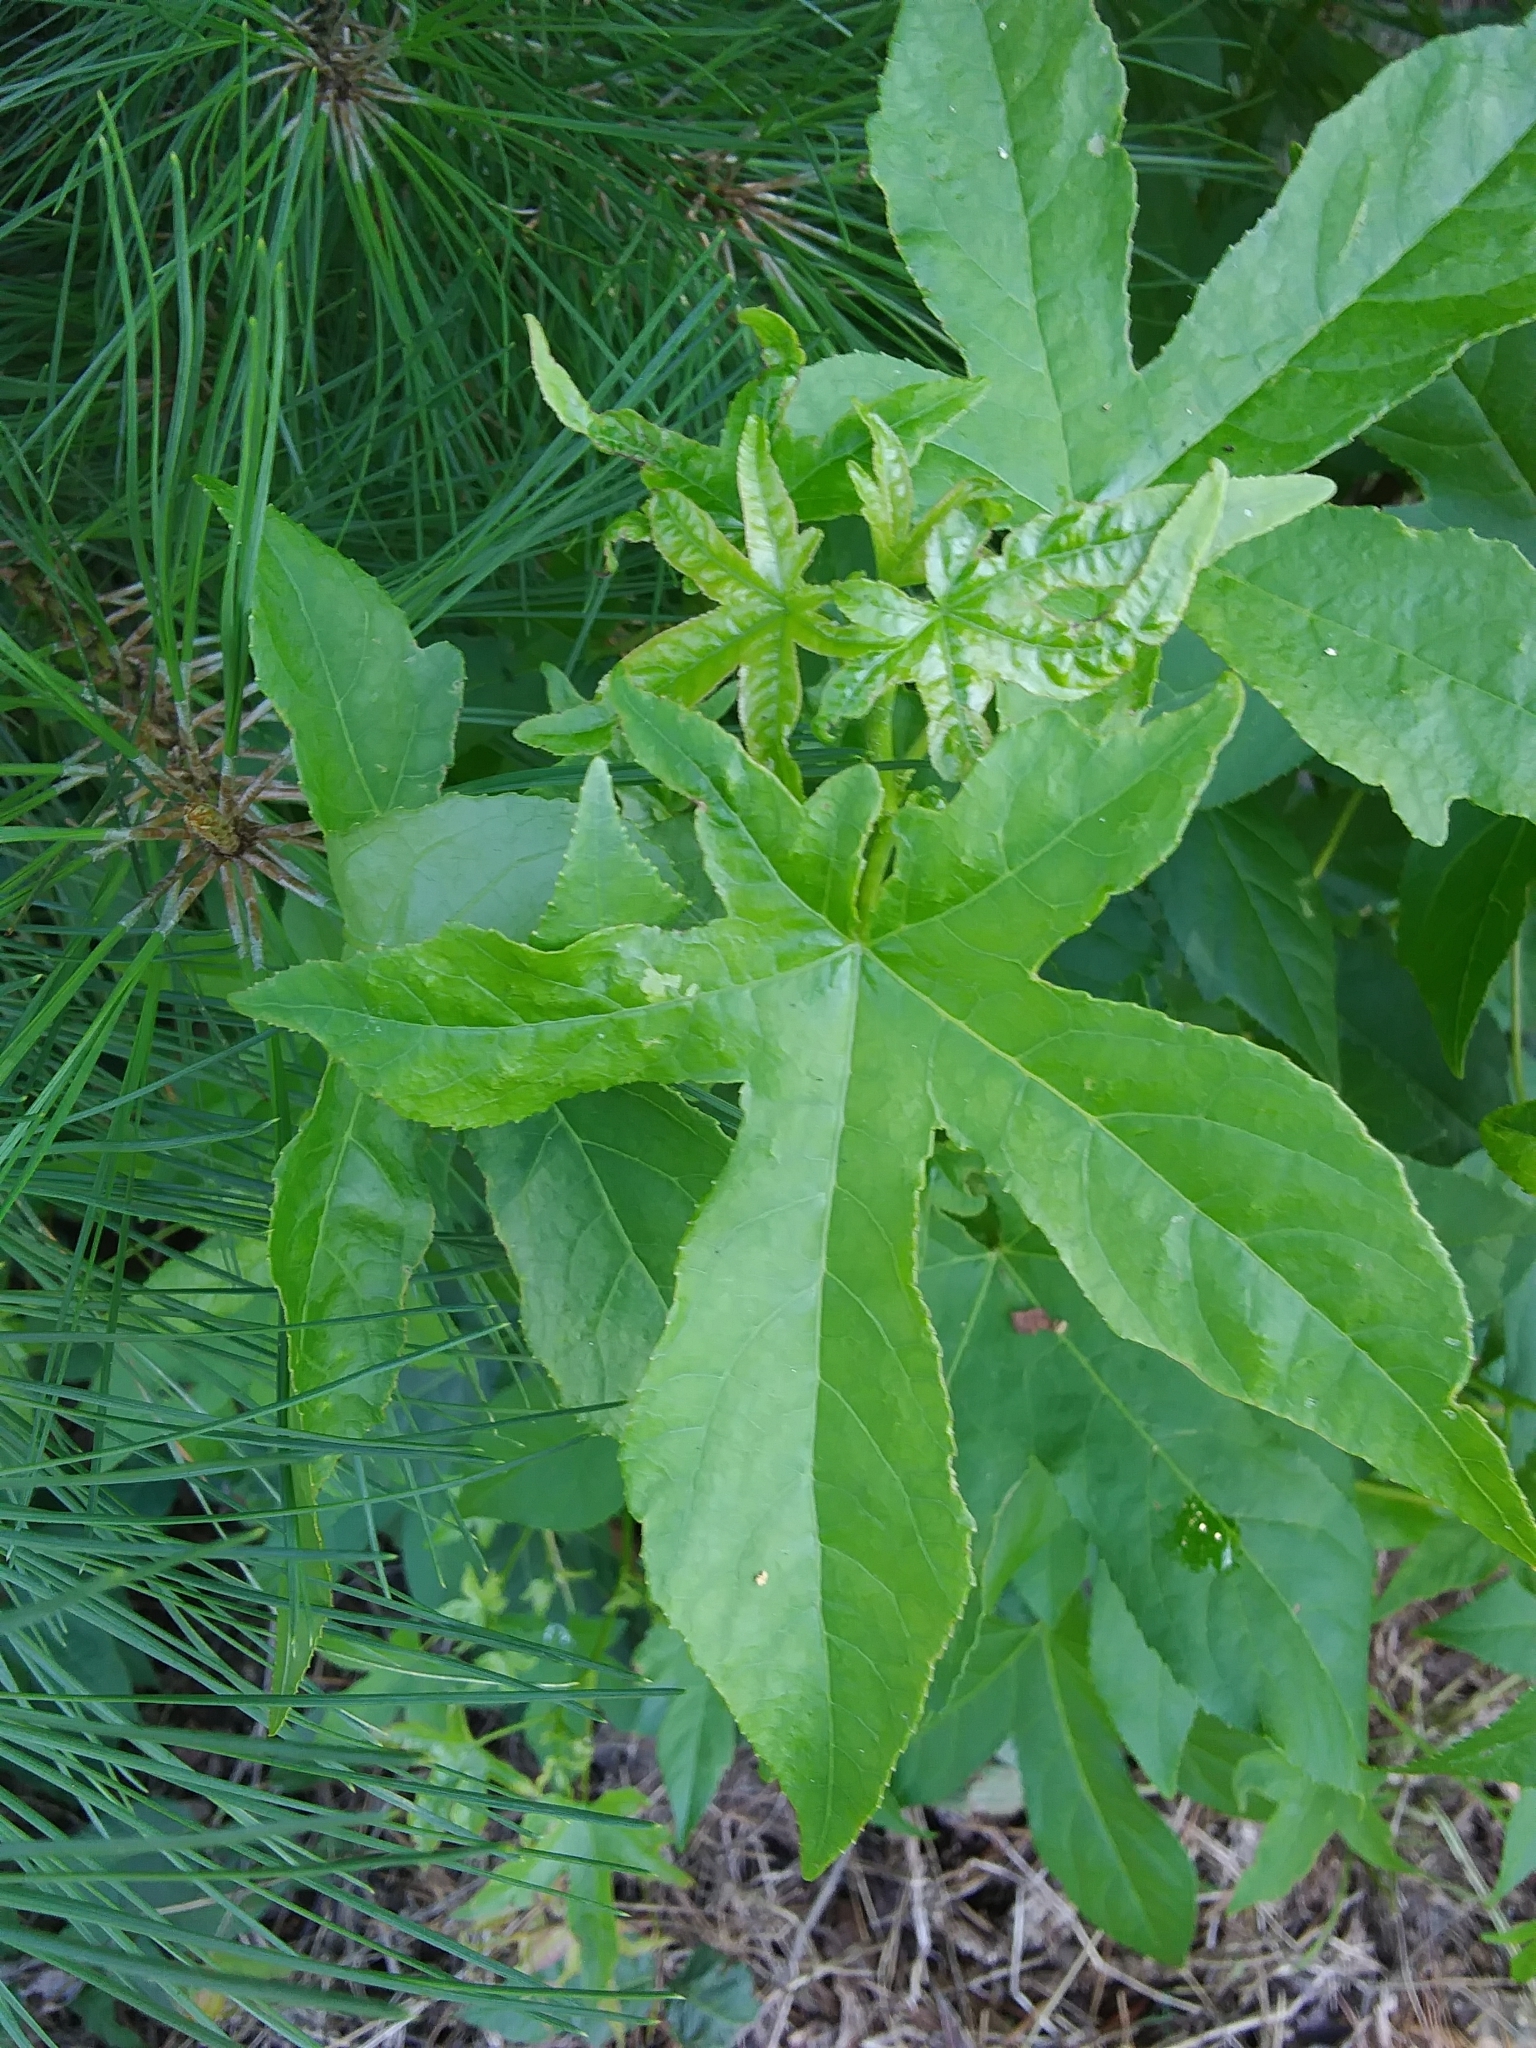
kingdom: Plantae
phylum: Tracheophyta
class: Magnoliopsida
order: Saxifragales
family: Altingiaceae
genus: Liquidambar
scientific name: Liquidambar styraciflua
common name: Sweet gum
